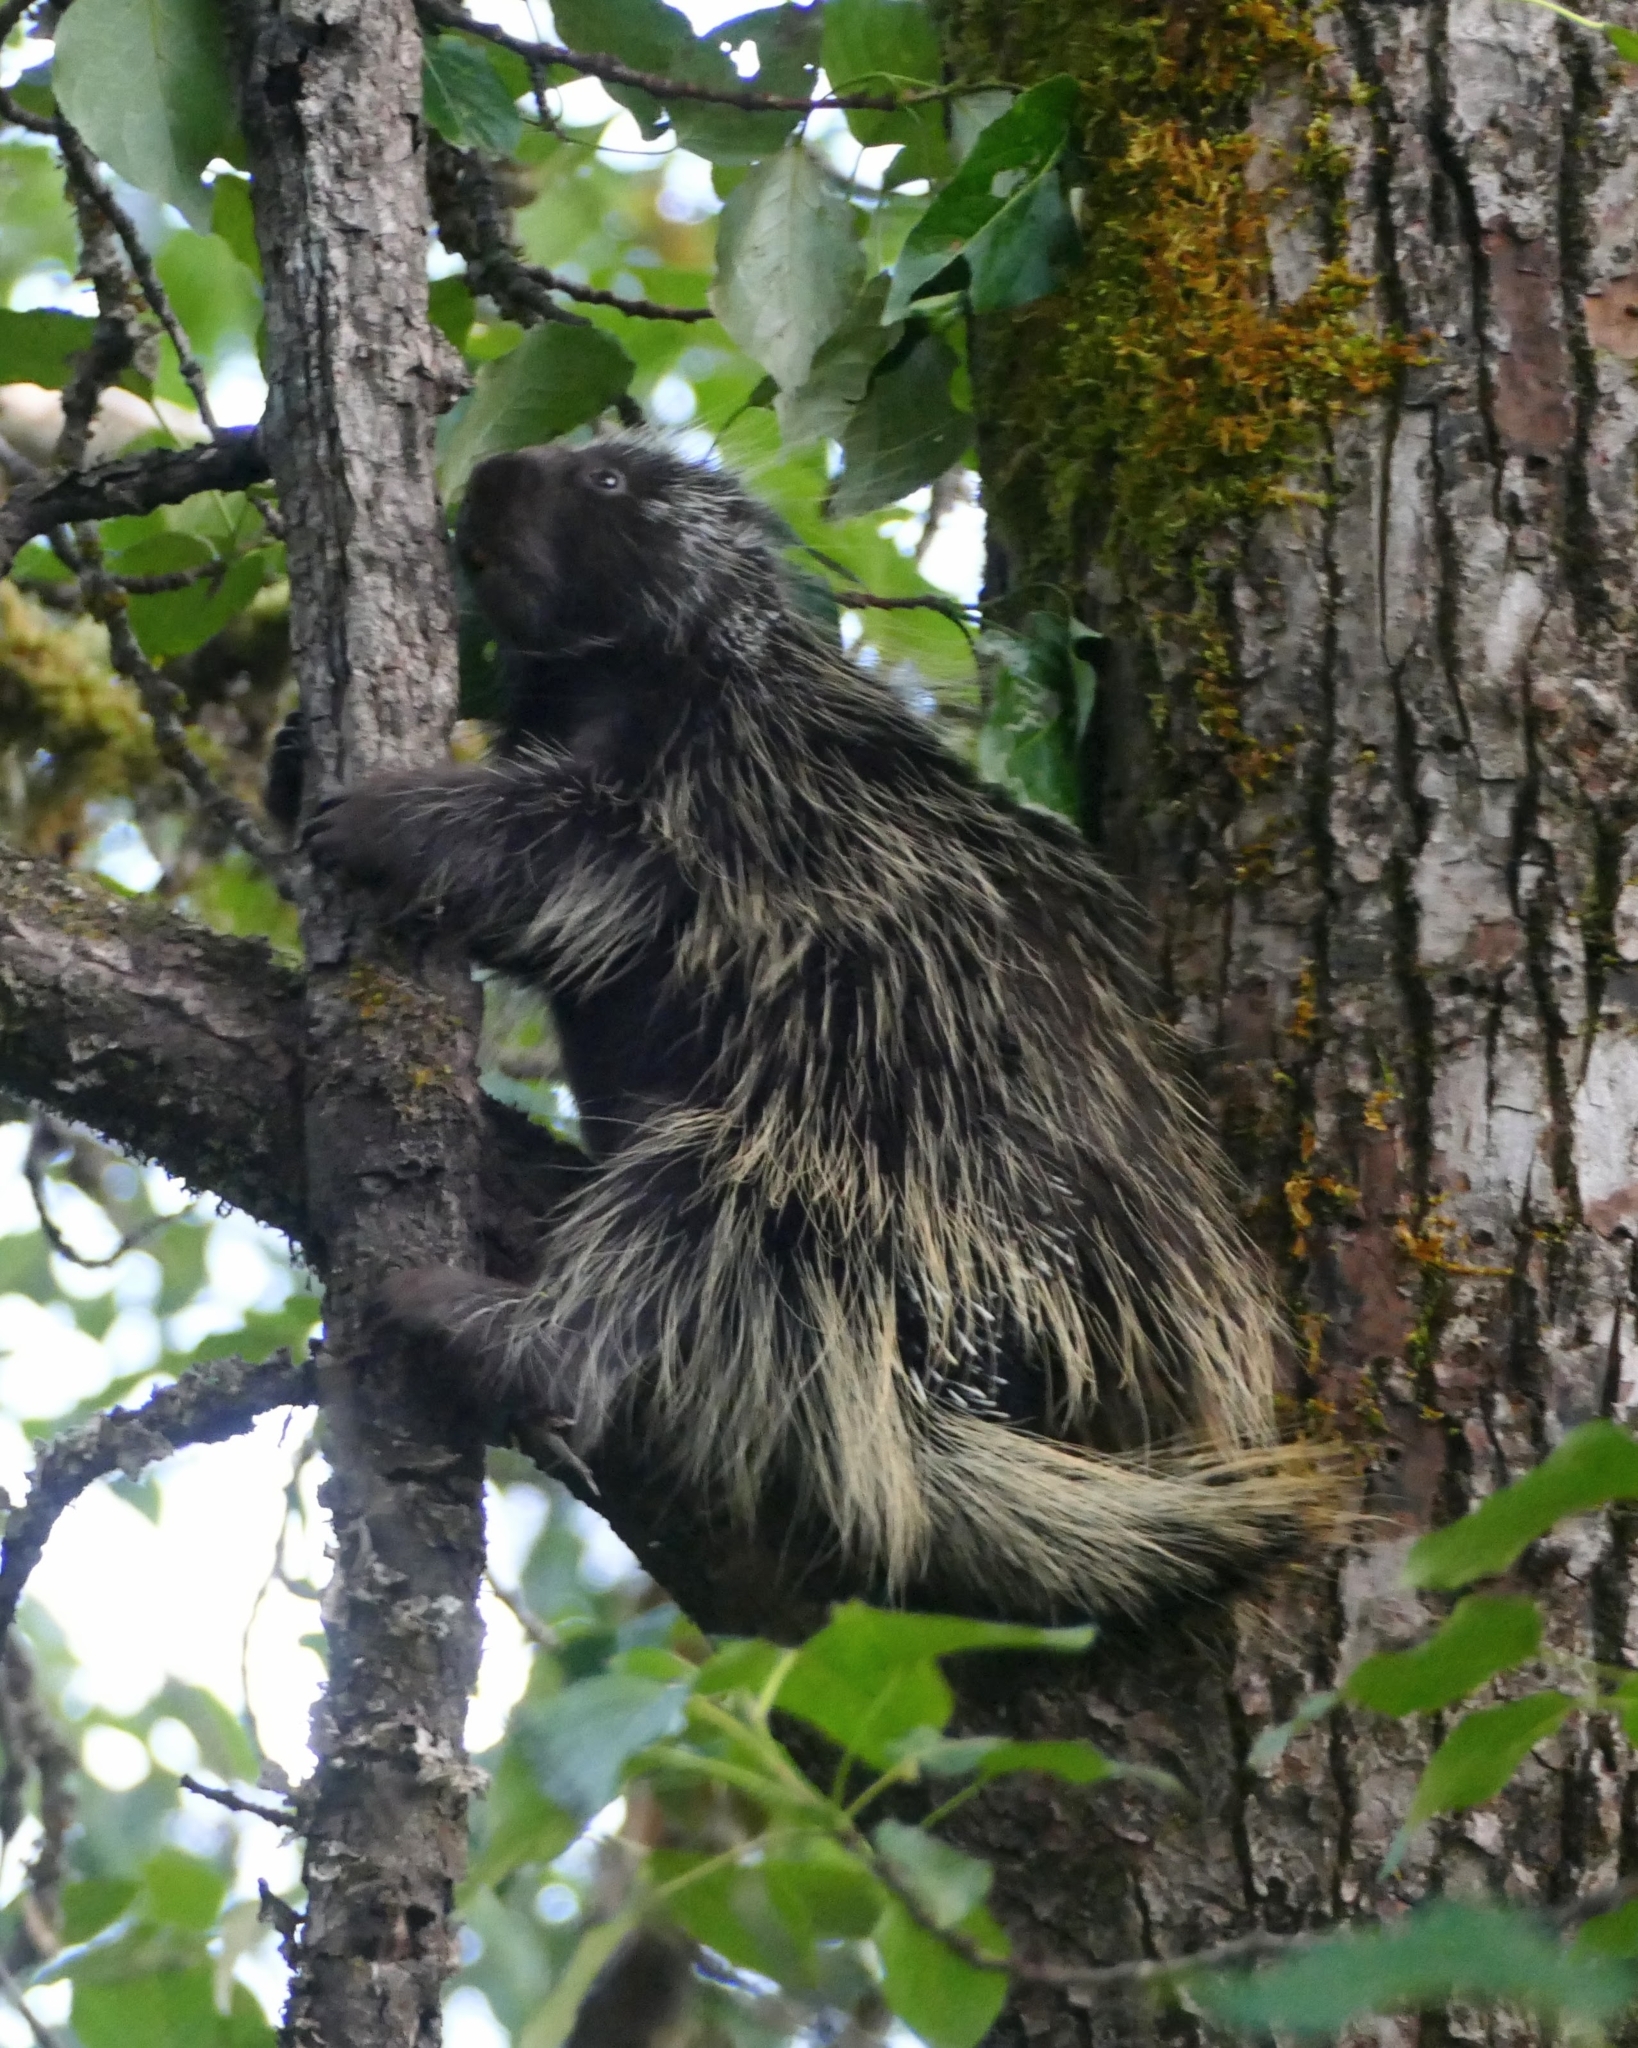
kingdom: Animalia
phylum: Chordata
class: Mammalia
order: Rodentia
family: Erethizontidae
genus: Erethizon
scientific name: Erethizon dorsatus
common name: North american porcupine
